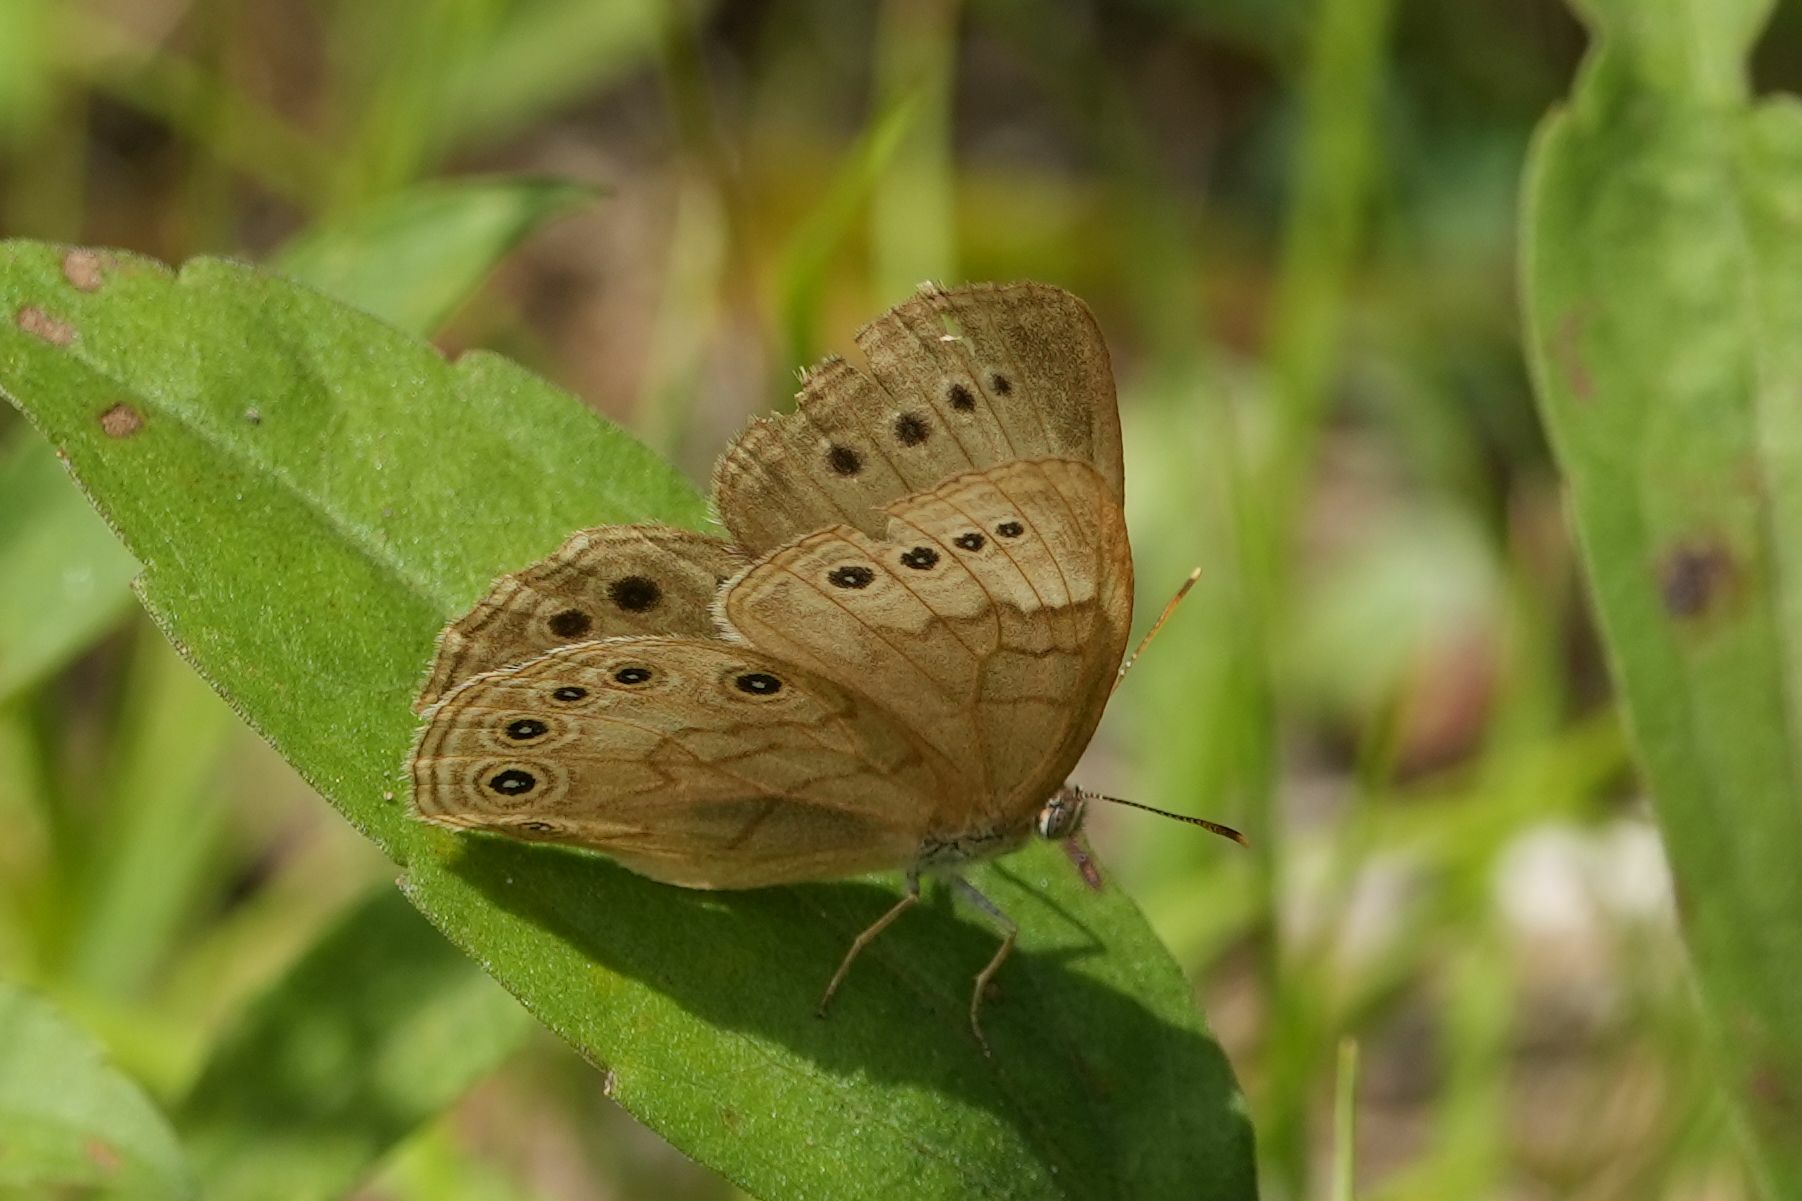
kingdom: Animalia
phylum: Arthropoda
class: Insecta
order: Lepidoptera
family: Nymphalidae
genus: Lethe
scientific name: Lethe eurydice
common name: Eyed brown
